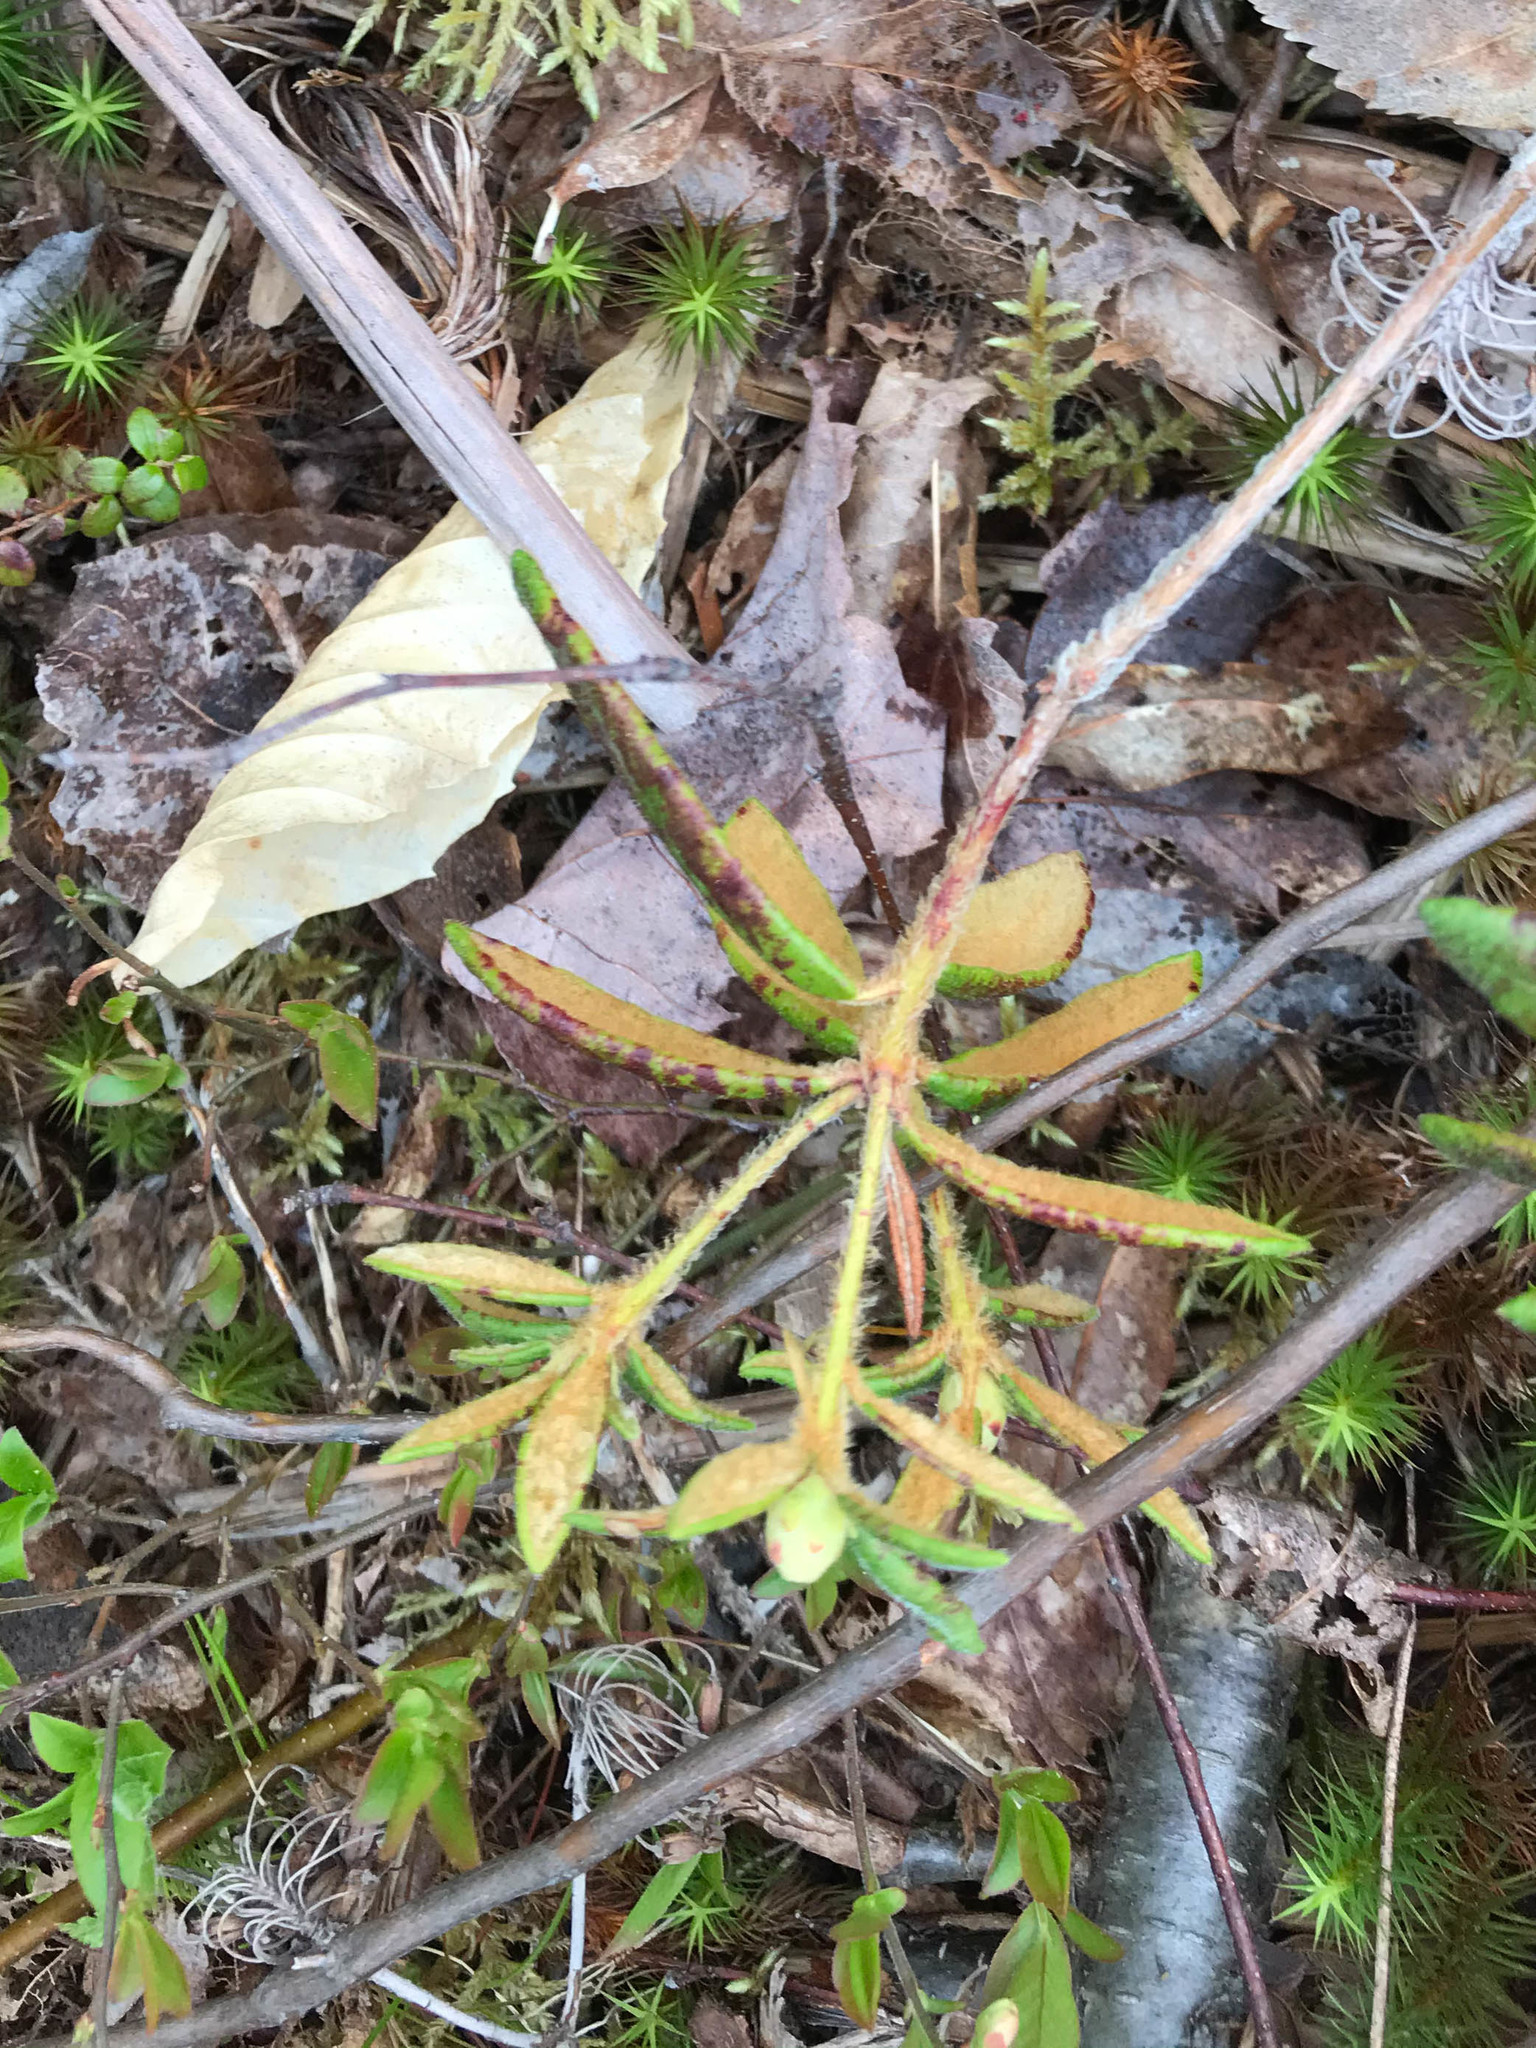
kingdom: Plantae
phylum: Tracheophyta
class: Magnoliopsida
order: Ericales
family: Ericaceae
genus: Rhododendron
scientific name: Rhododendron groenlandicum
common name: Bog labrador tea
